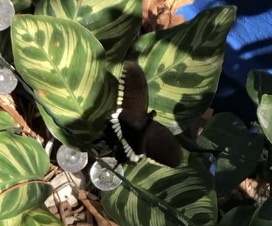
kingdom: Animalia
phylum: Arthropoda
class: Insecta
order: Lepidoptera
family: Papilionidae
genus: Papilio
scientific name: Papilio polytes
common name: Common mormon
